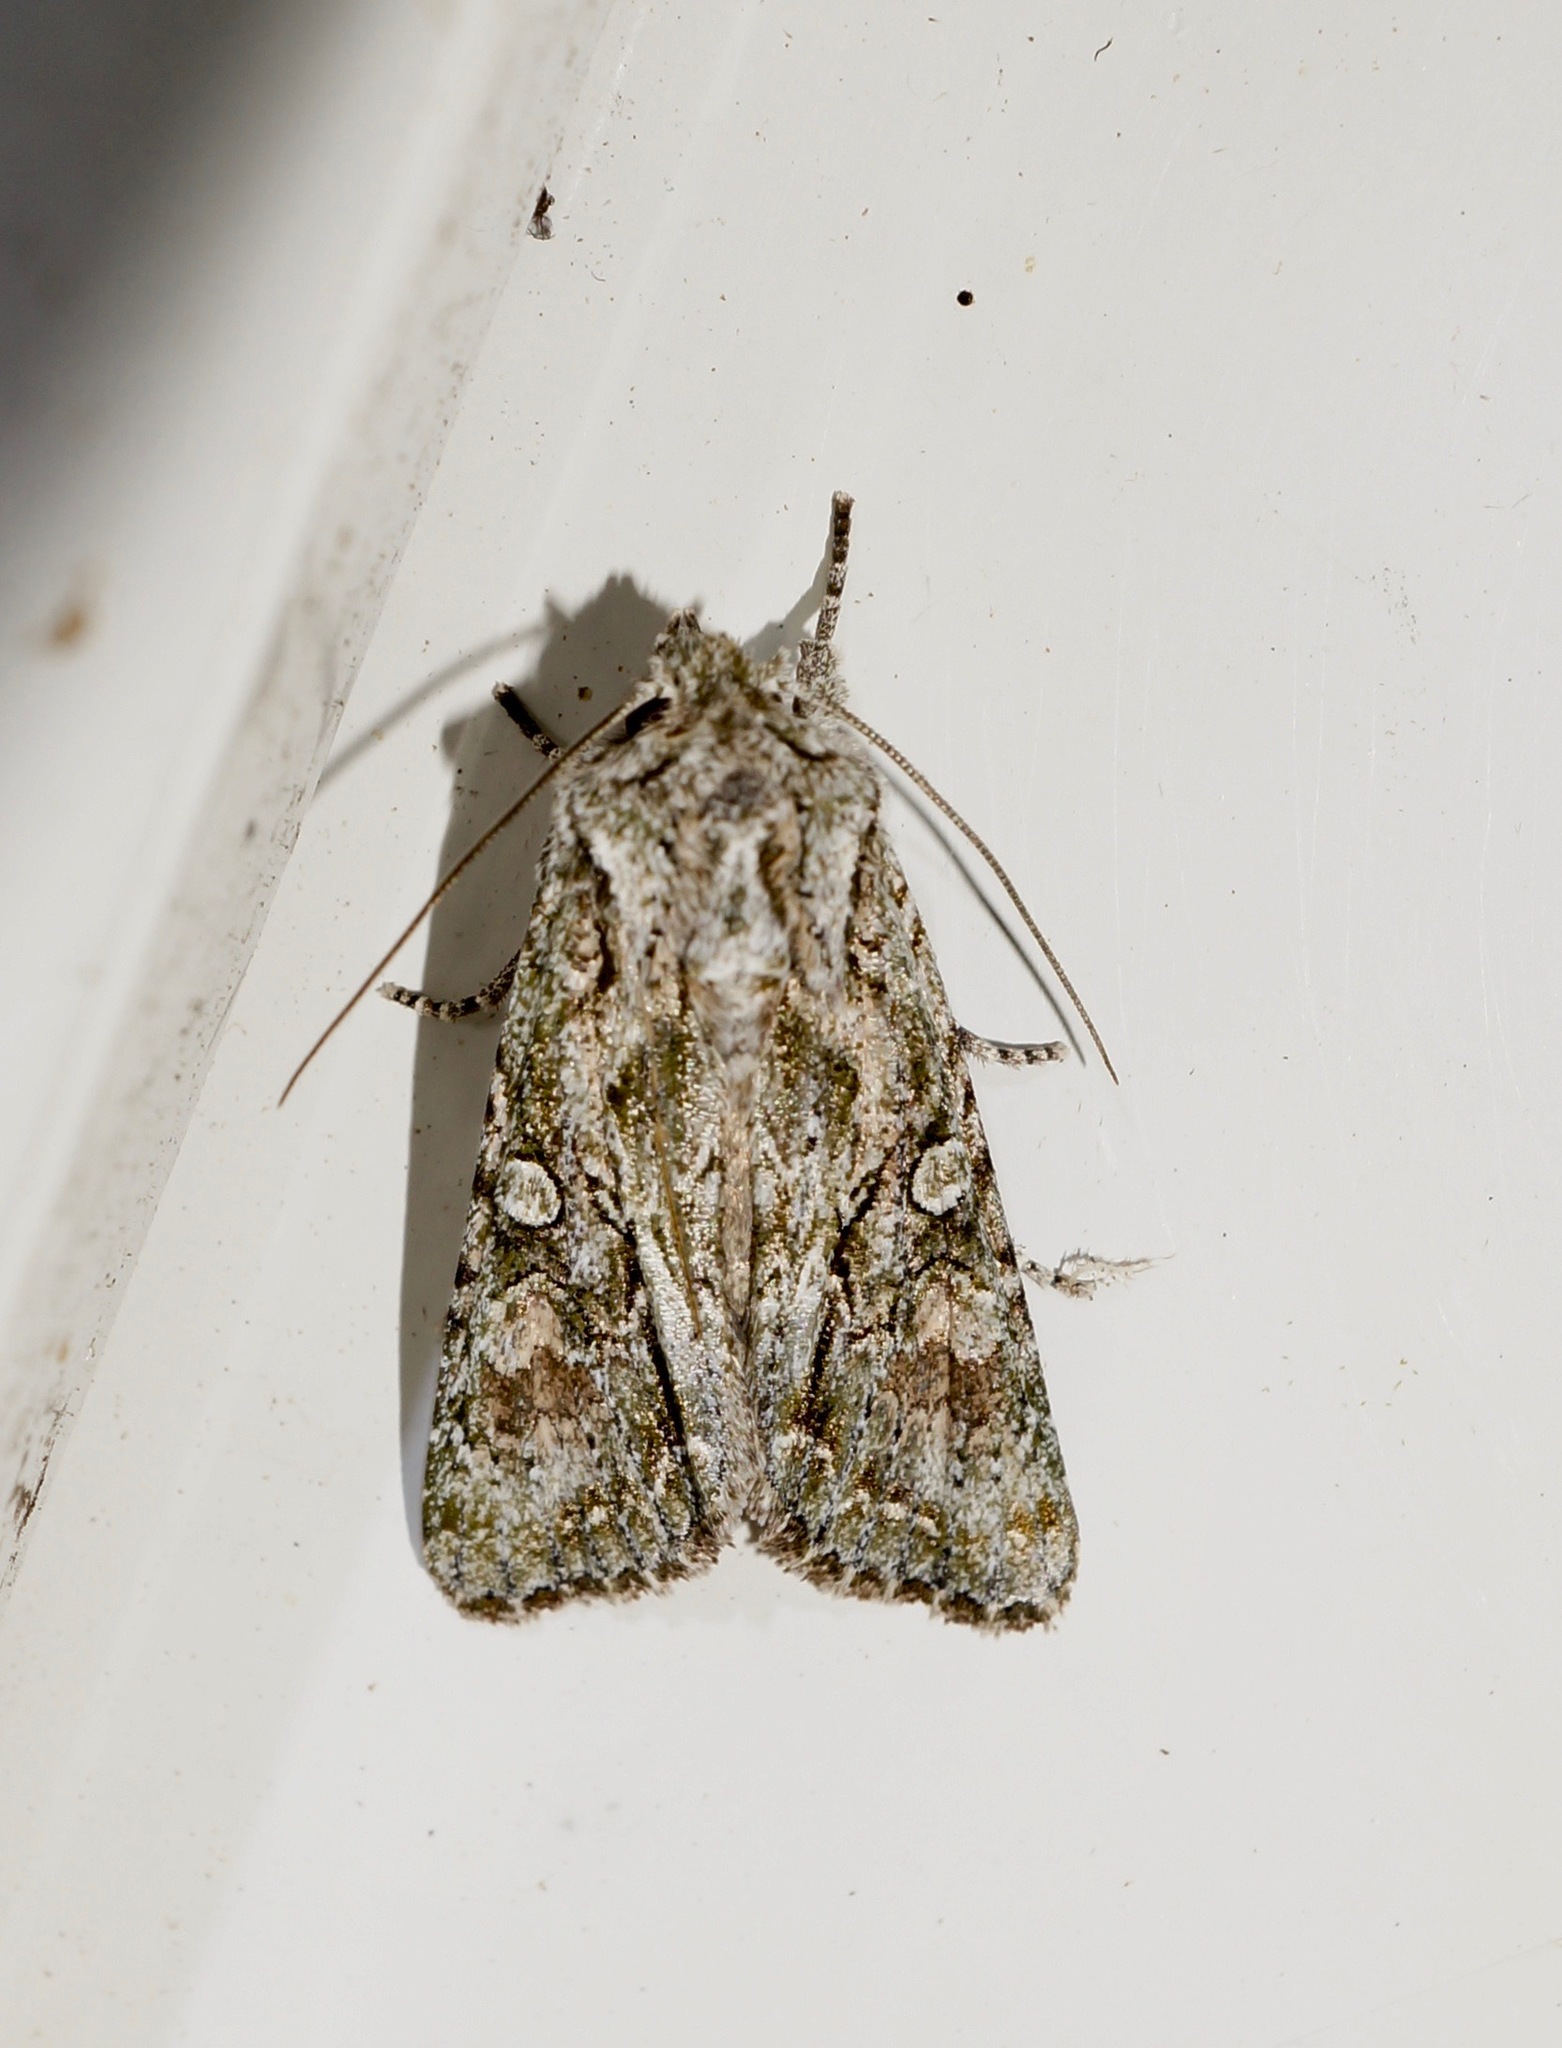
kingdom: Animalia
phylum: Arthropoda
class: Insecta
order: Lepidoptera
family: Noctuidae
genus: Ichneutica
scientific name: Ichneutica mutans
